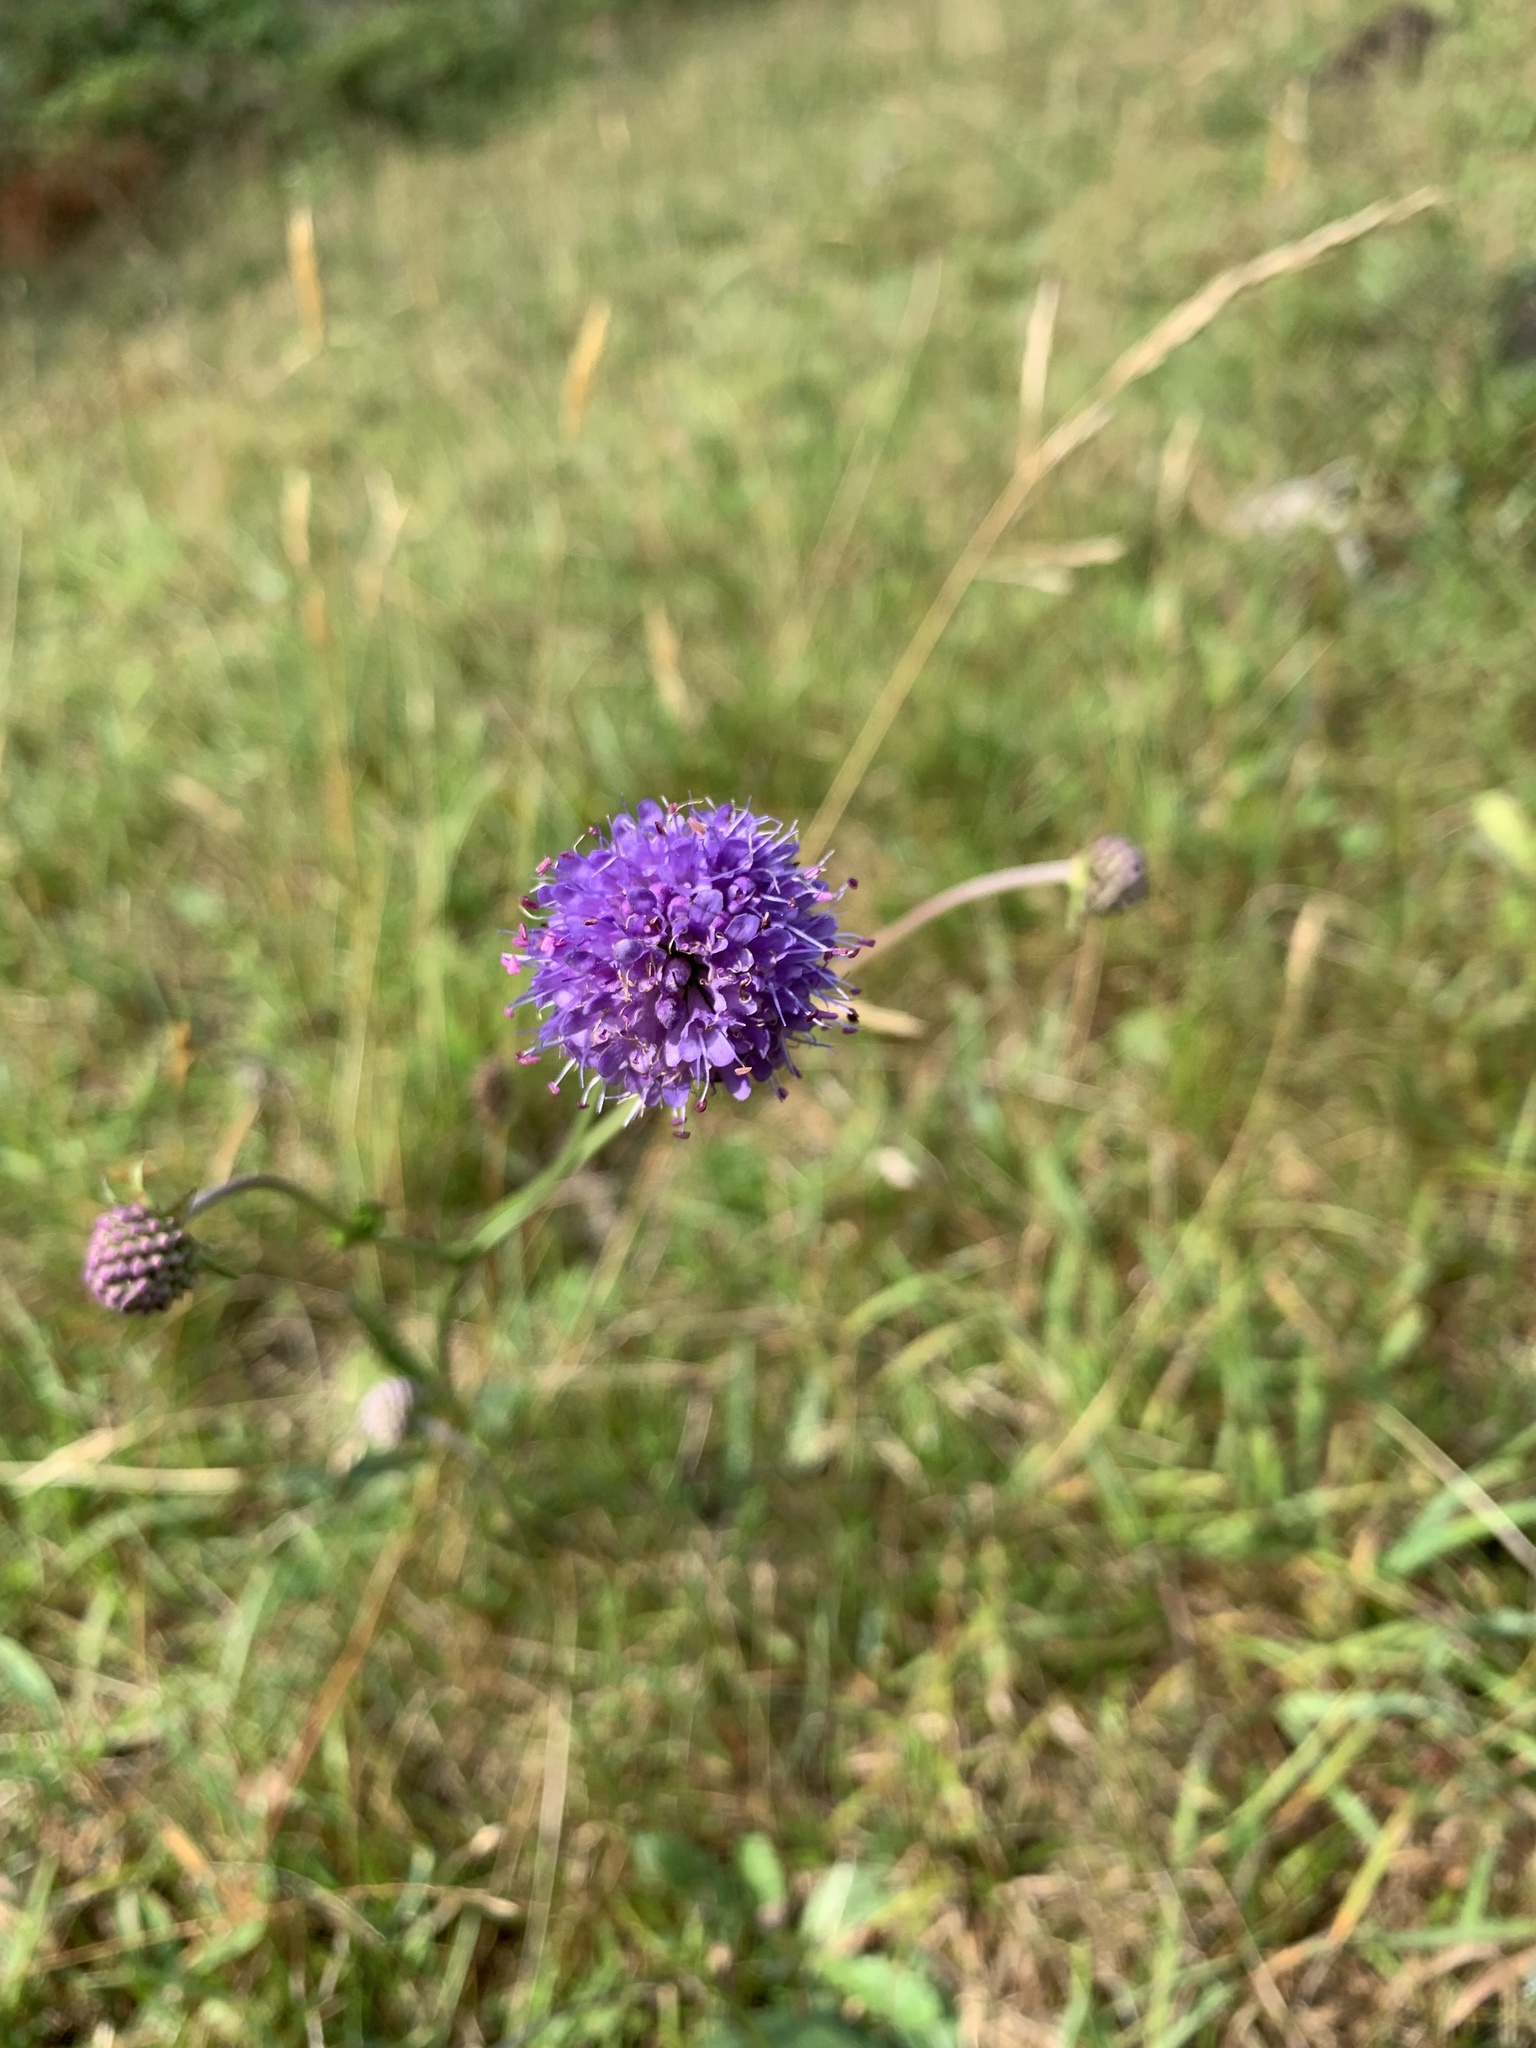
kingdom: Plantae
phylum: Tracheophyta
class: Magnoliopsida
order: Dipsacales
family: Caprifoliaceae
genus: Succisa
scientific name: Succisa pratensis
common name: Devil's-bit
